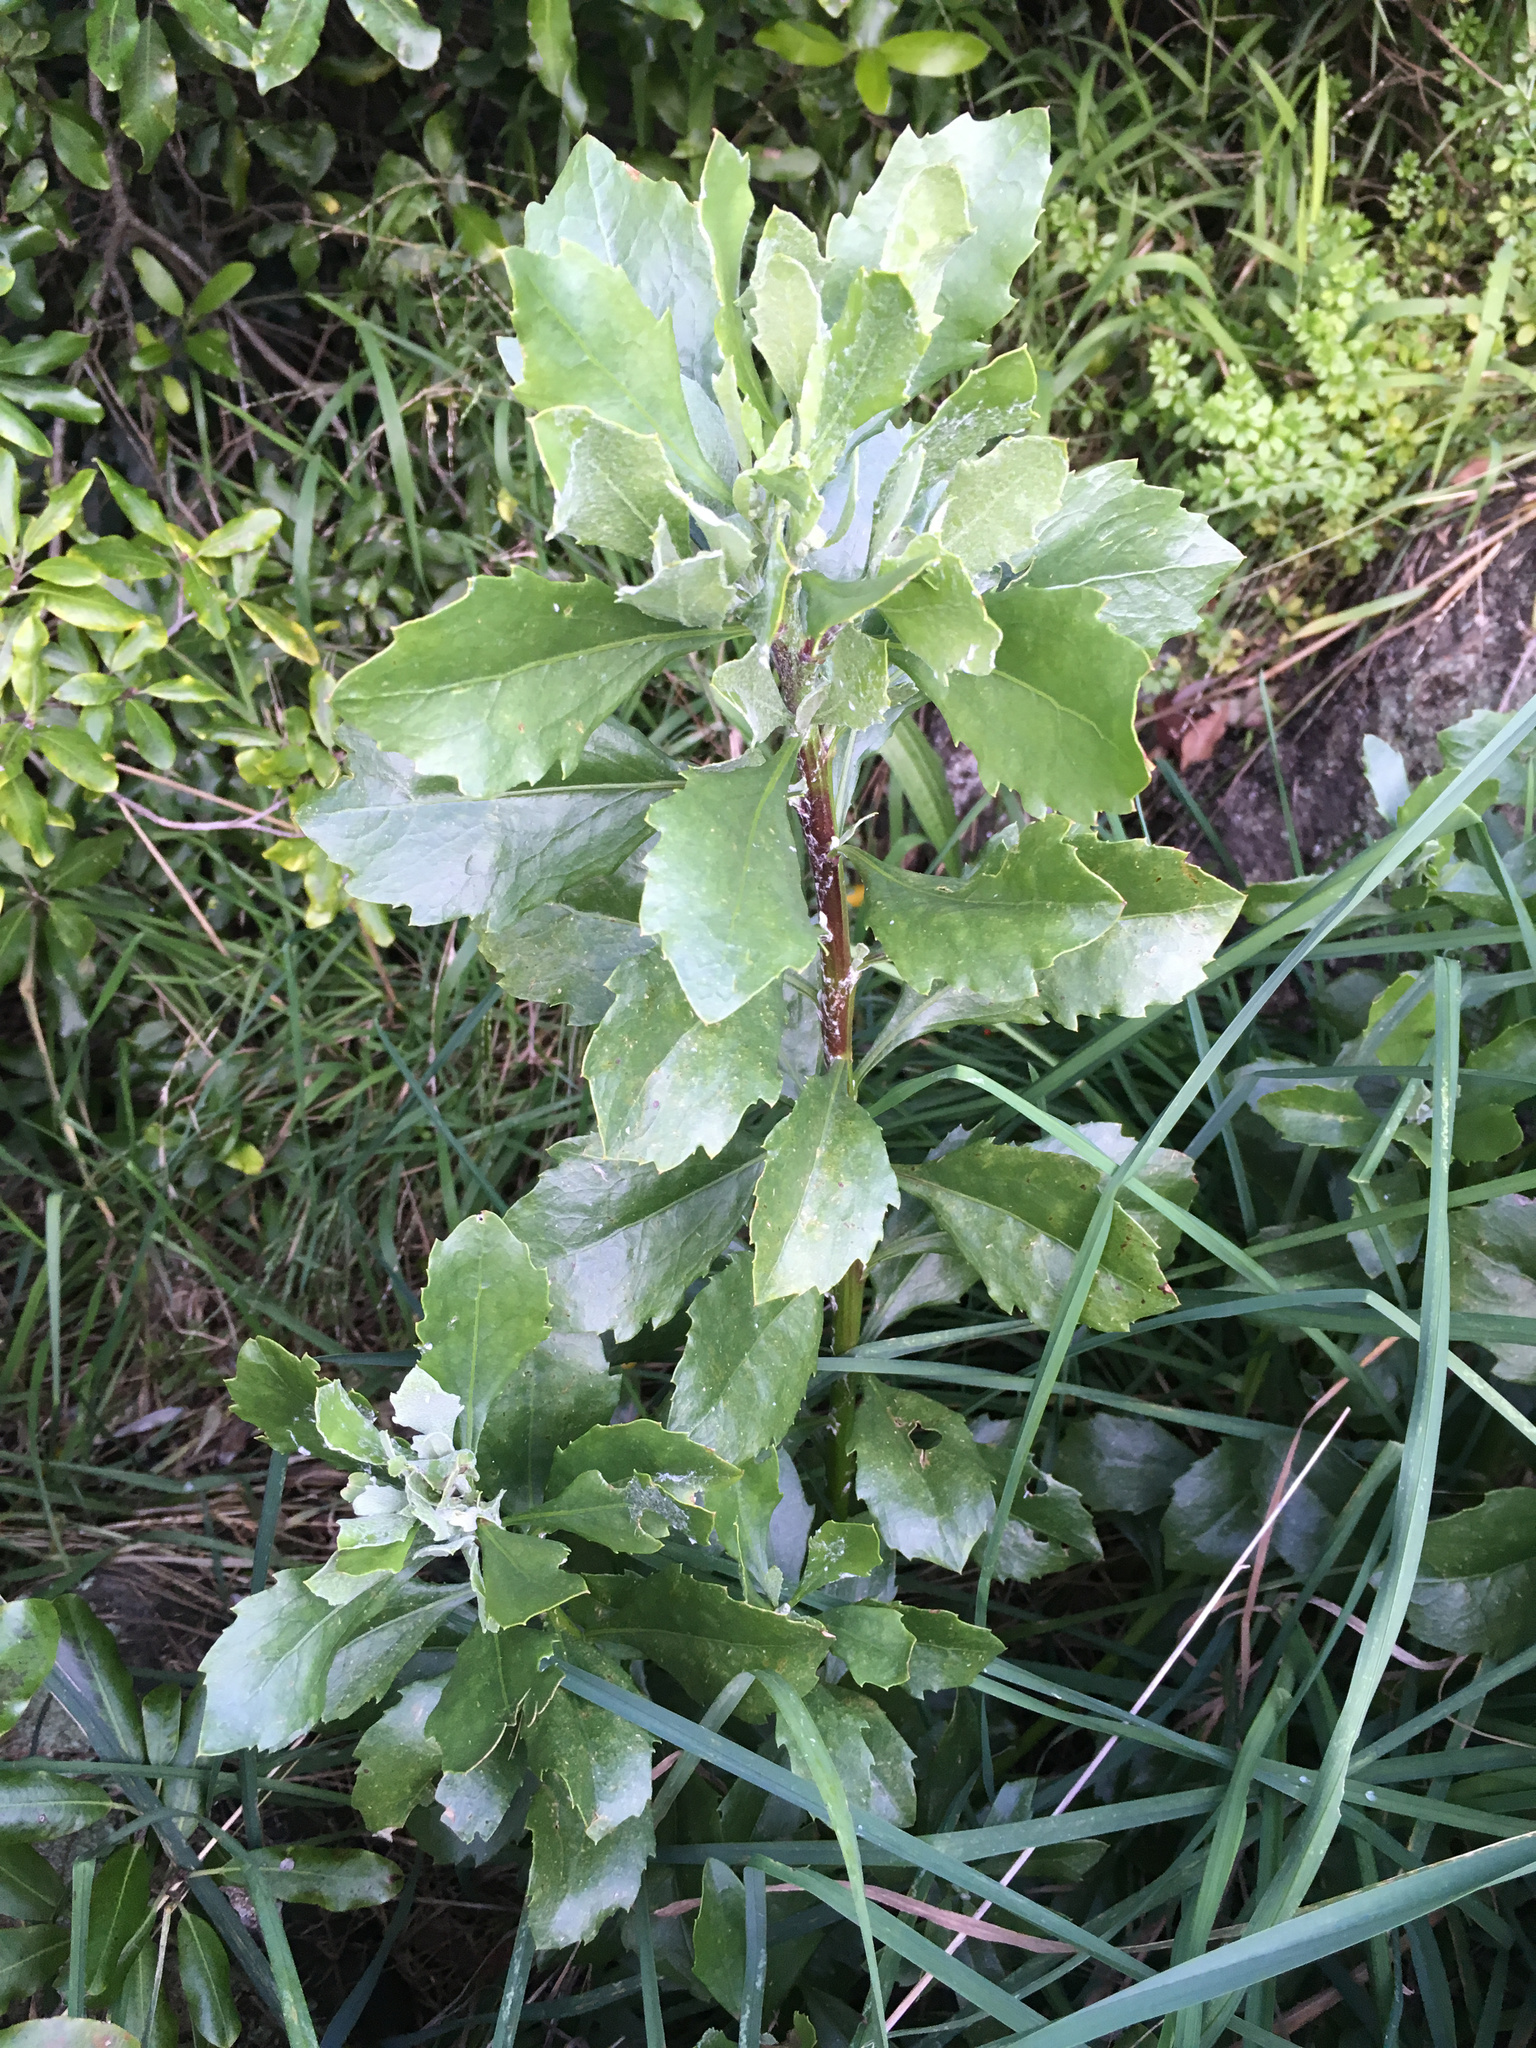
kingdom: Plantae
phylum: Tracheophyta
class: Magnoliopsida
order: Asterales
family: Asteraceae
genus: Osteospermum
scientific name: Osteospermum moniliferum
